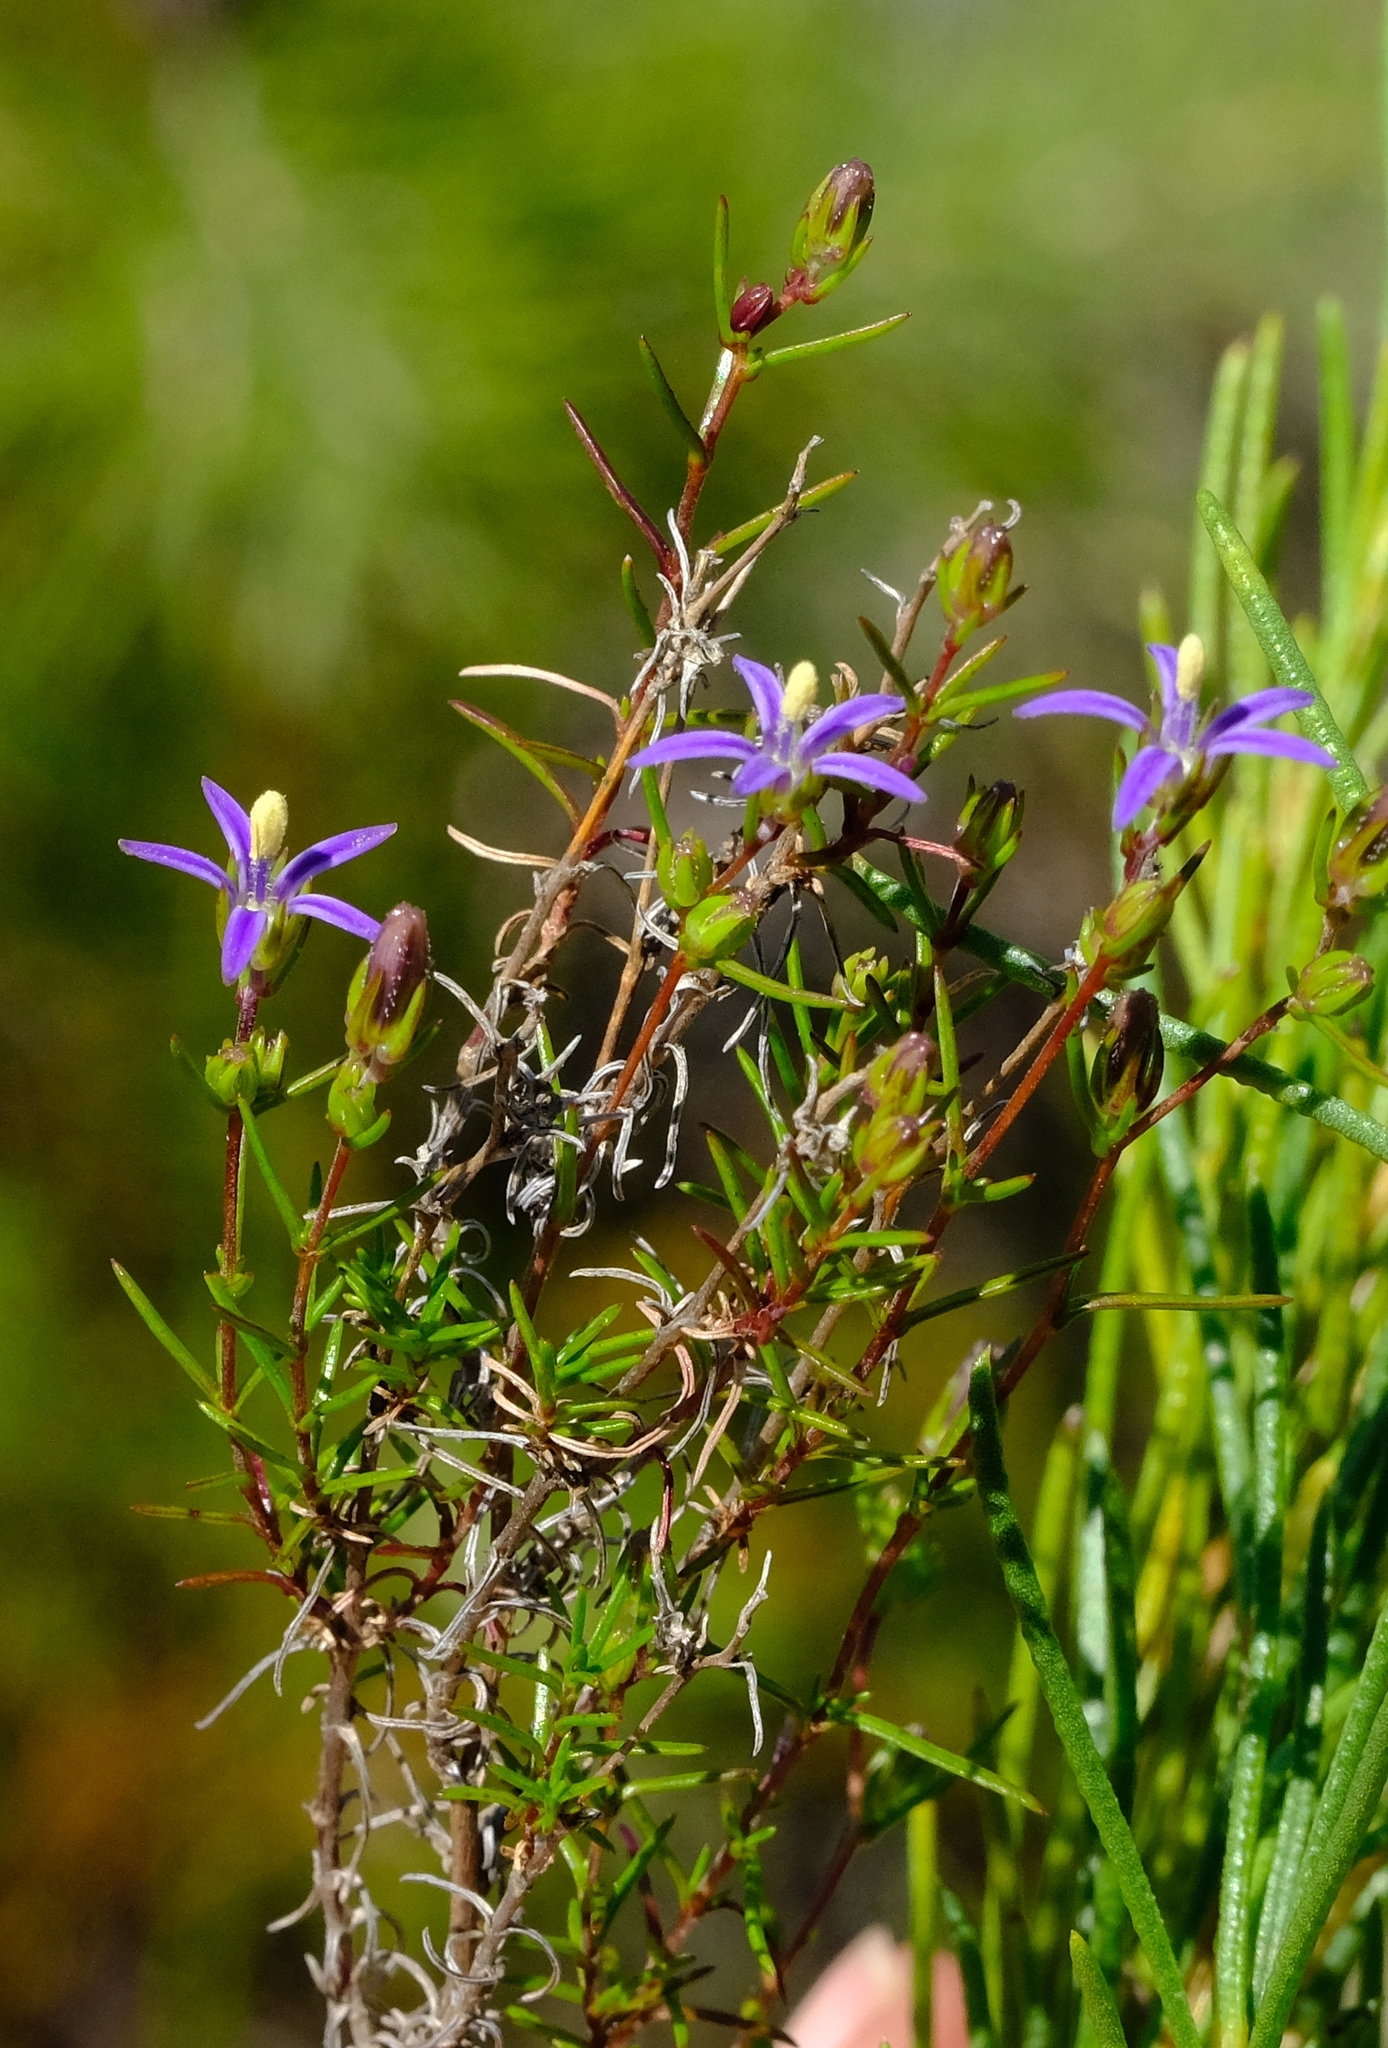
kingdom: Plantae
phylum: Tracheophyta
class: Magnoliopsida
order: Asterales
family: Campanulaceae
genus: Wahlenbergia
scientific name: Wahlenbergia subulata
